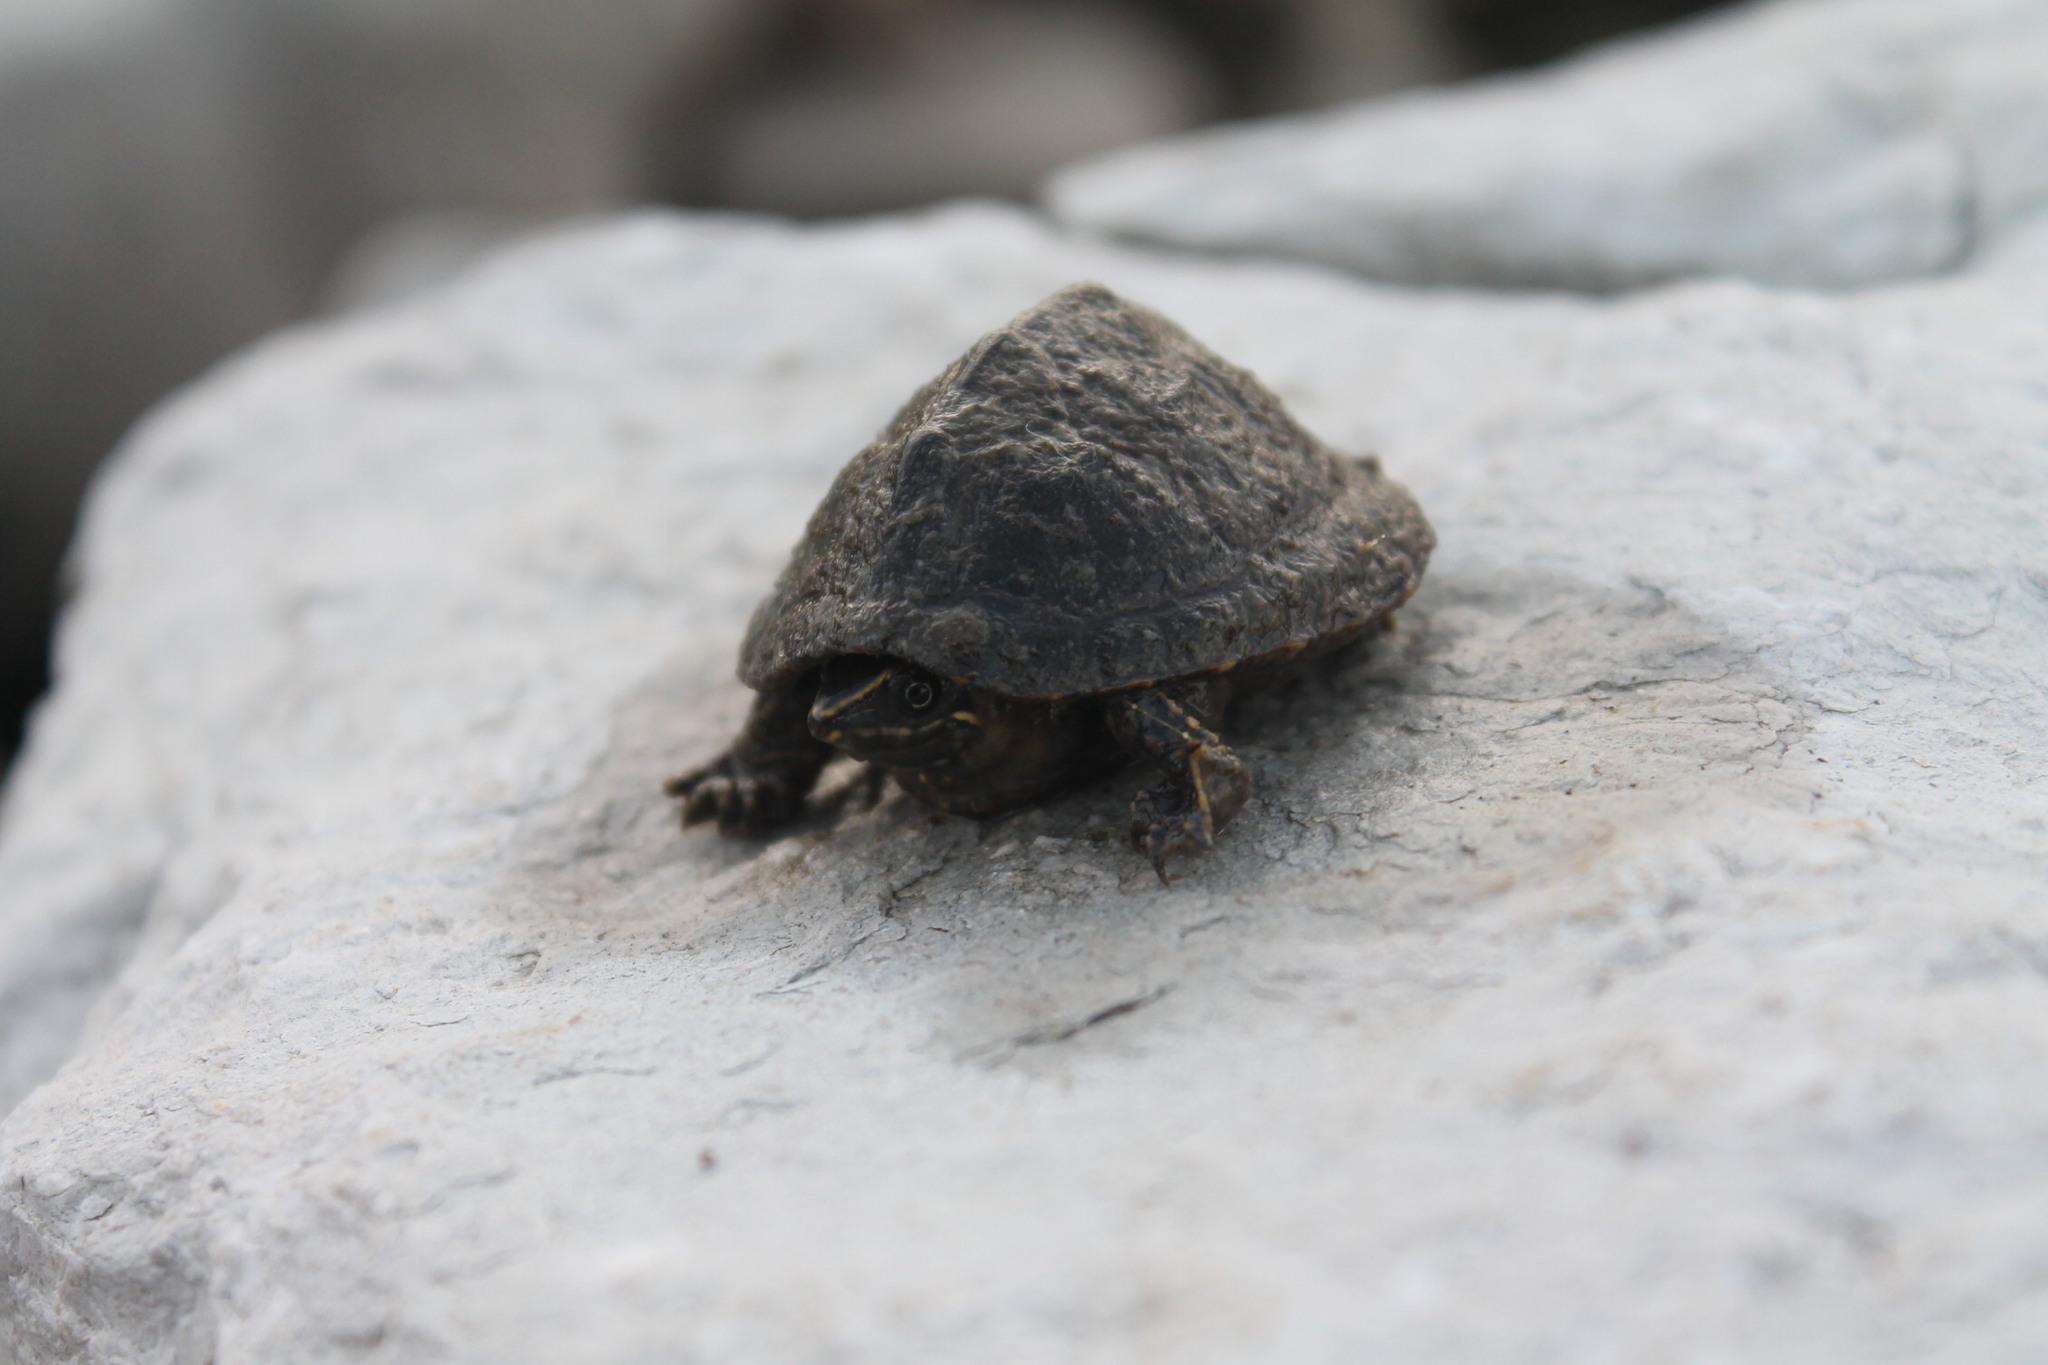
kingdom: Animalia
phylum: Chordata
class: Testudines
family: Kinosternidae
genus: Sternotherus
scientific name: Sternotherus odoratus
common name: Common musk turtle
